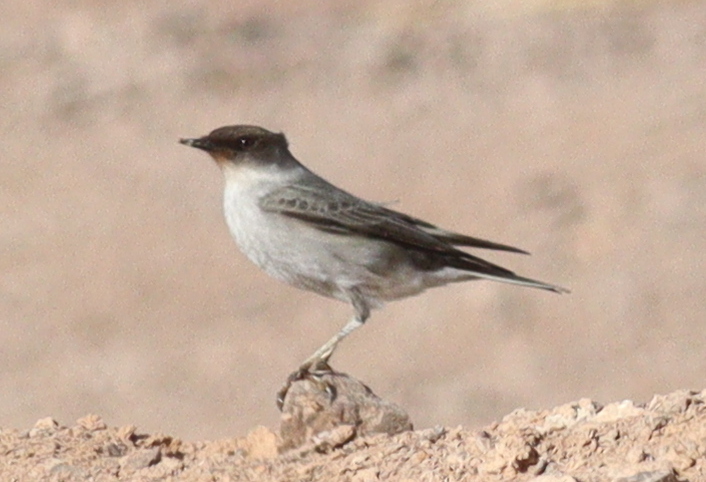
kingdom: Animalia
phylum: Chordata
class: Aves
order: Passeriformes
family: Tyrannidae
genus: Muscisaxicola
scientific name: Muscisaxicola maclovianus
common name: Dark-faced ground tyrant
